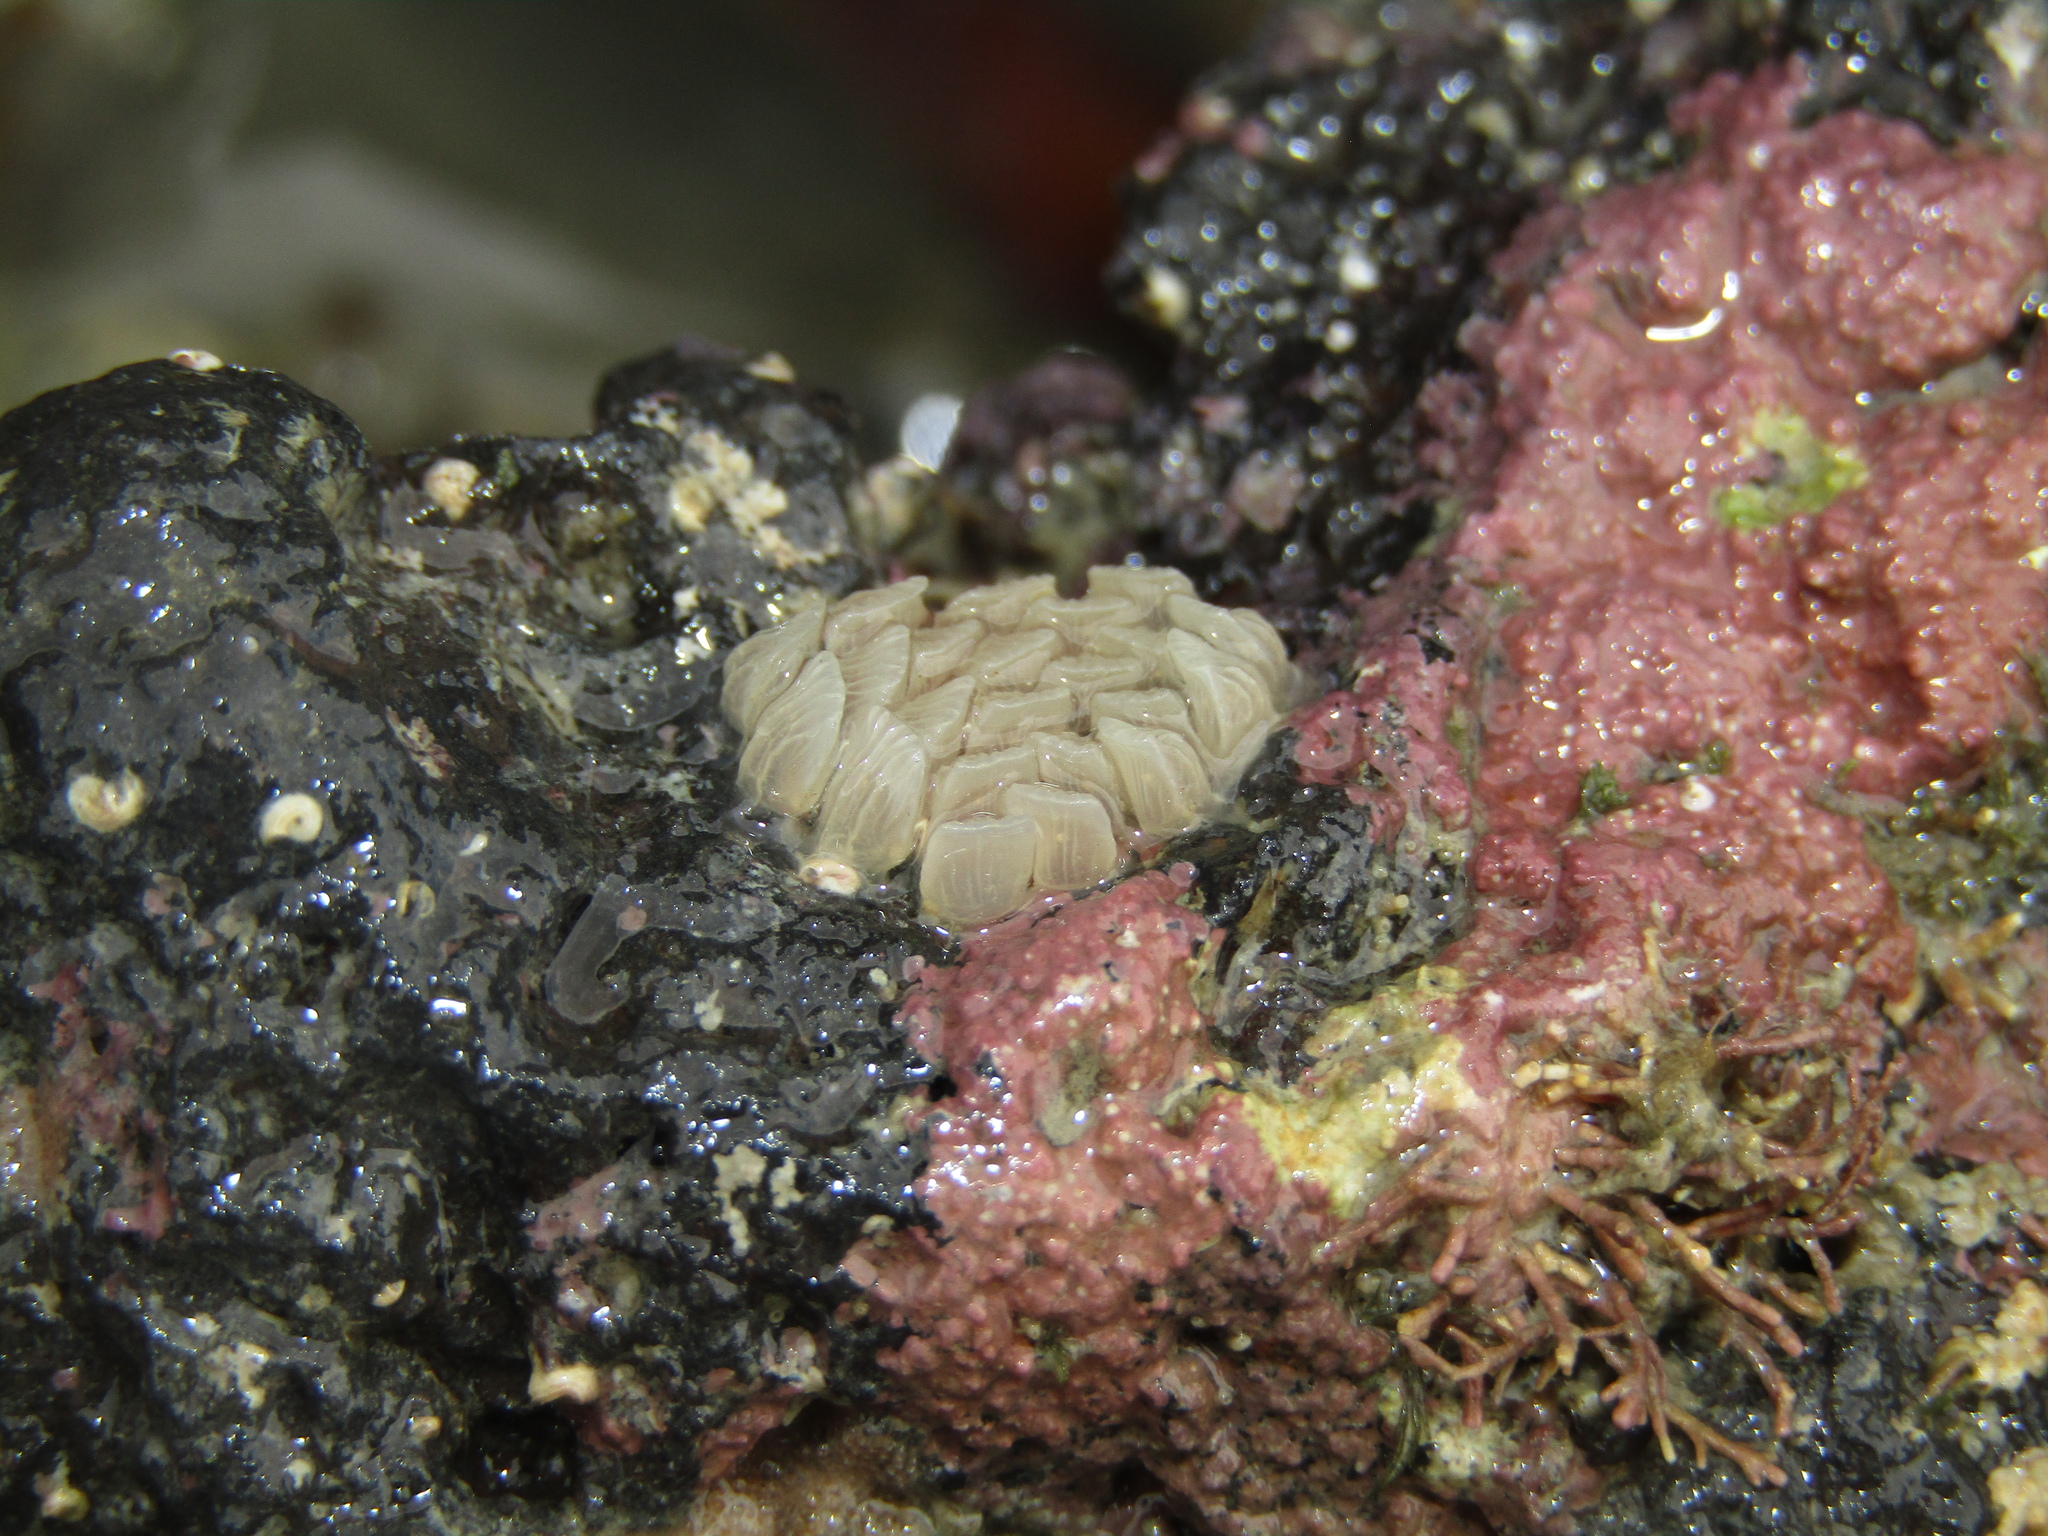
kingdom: Animalia
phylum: Mollusca
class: Gastropoda
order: Neogastropoda
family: Cominellidae
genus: Cominella
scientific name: Cominella virgata
